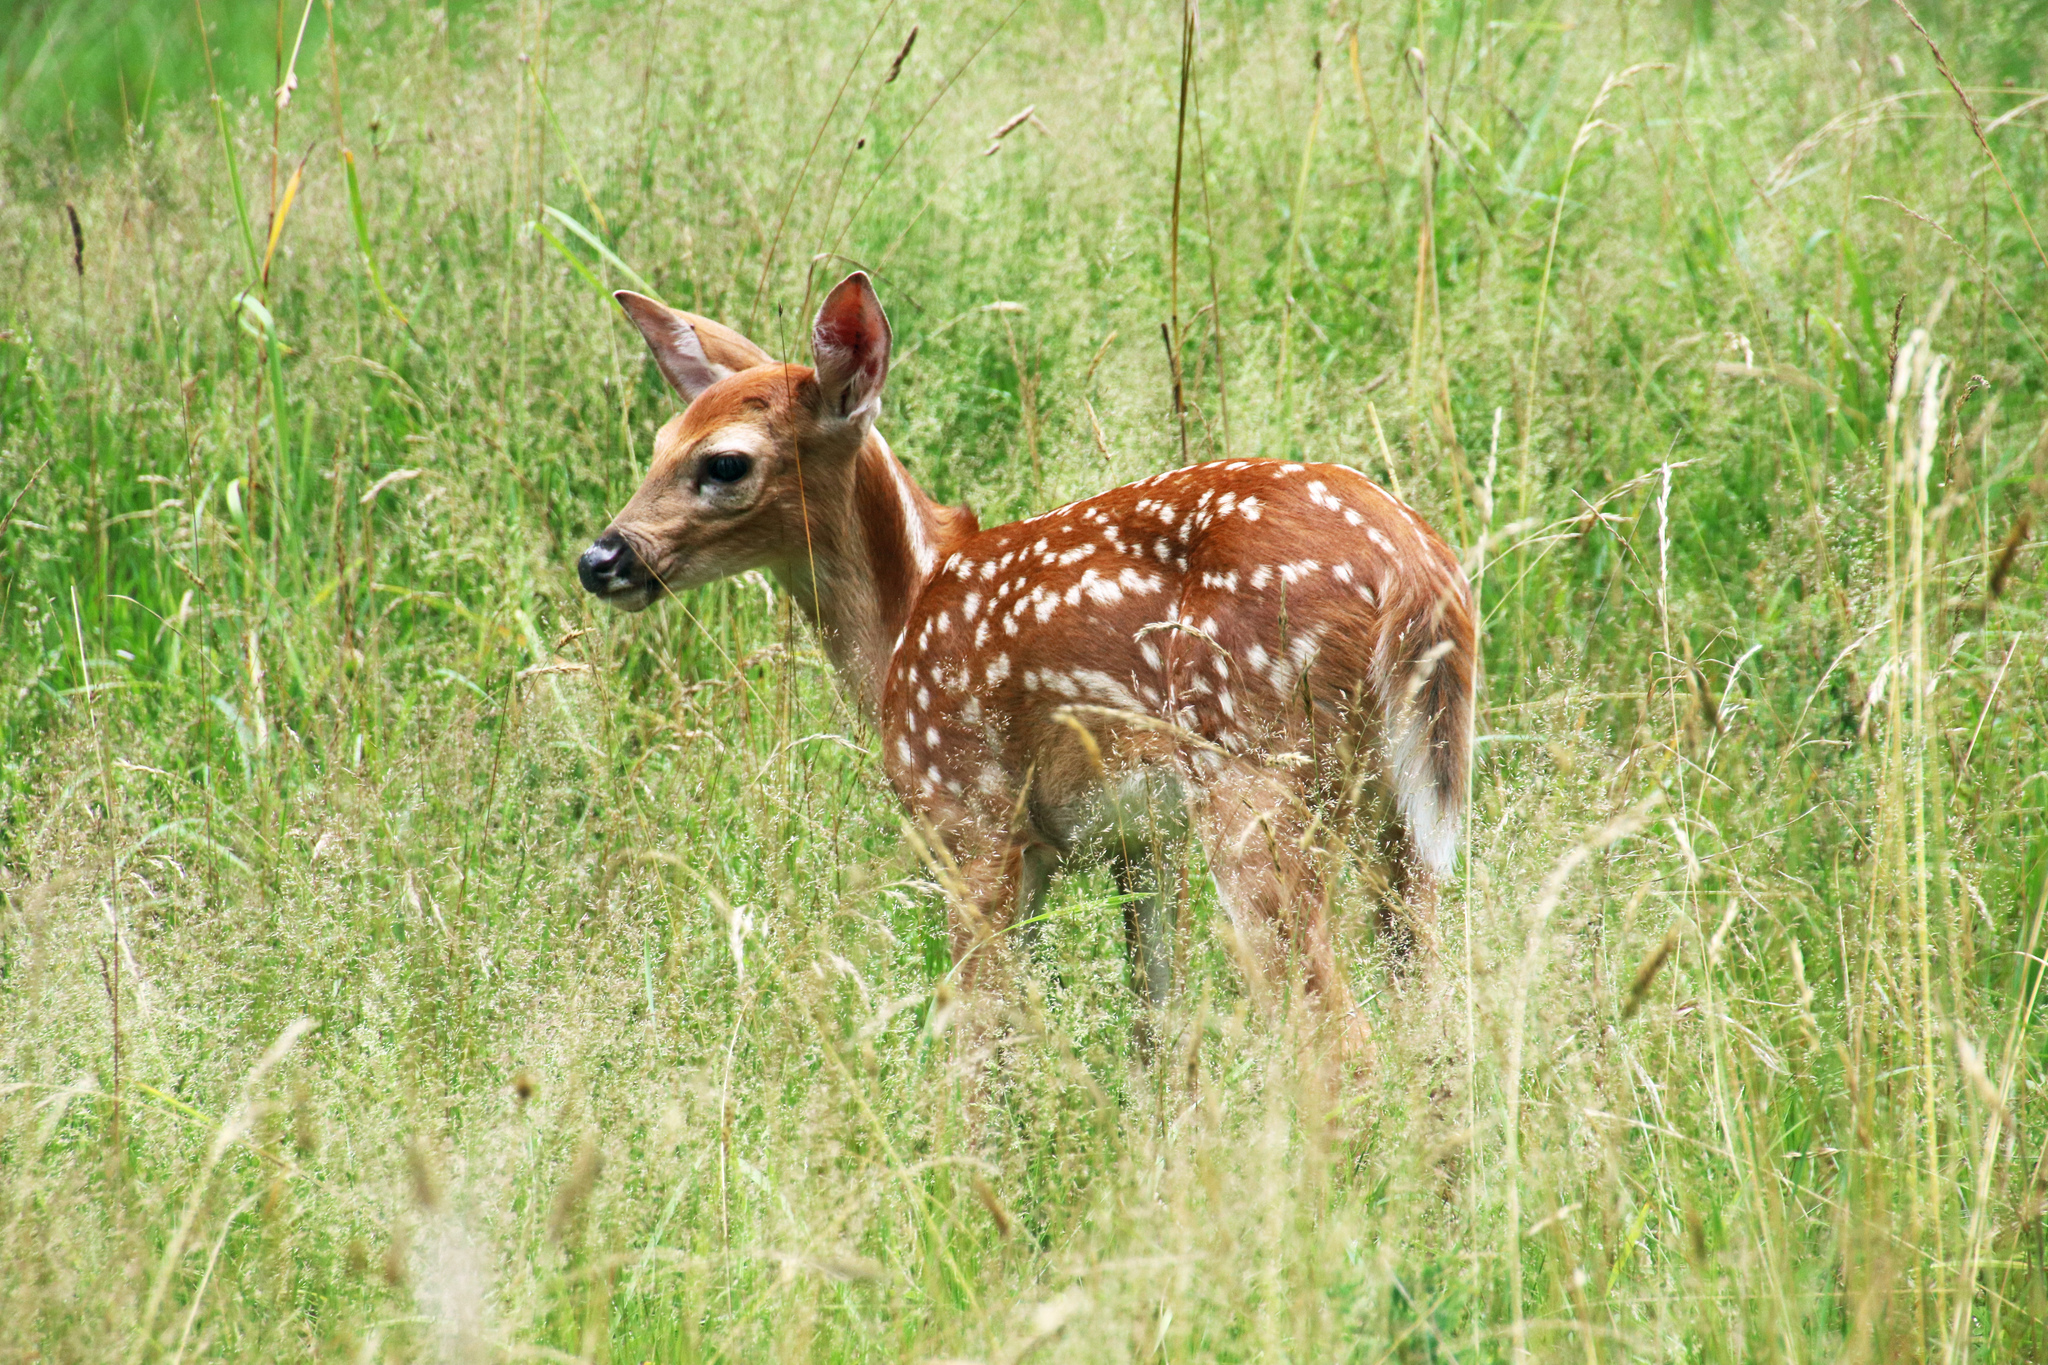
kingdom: Animalia
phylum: Chordata
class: Mammalia
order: Artiodactyla
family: Cervidae
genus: Odocoileus
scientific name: Odocoileus virginianus
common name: White-tailed deer
